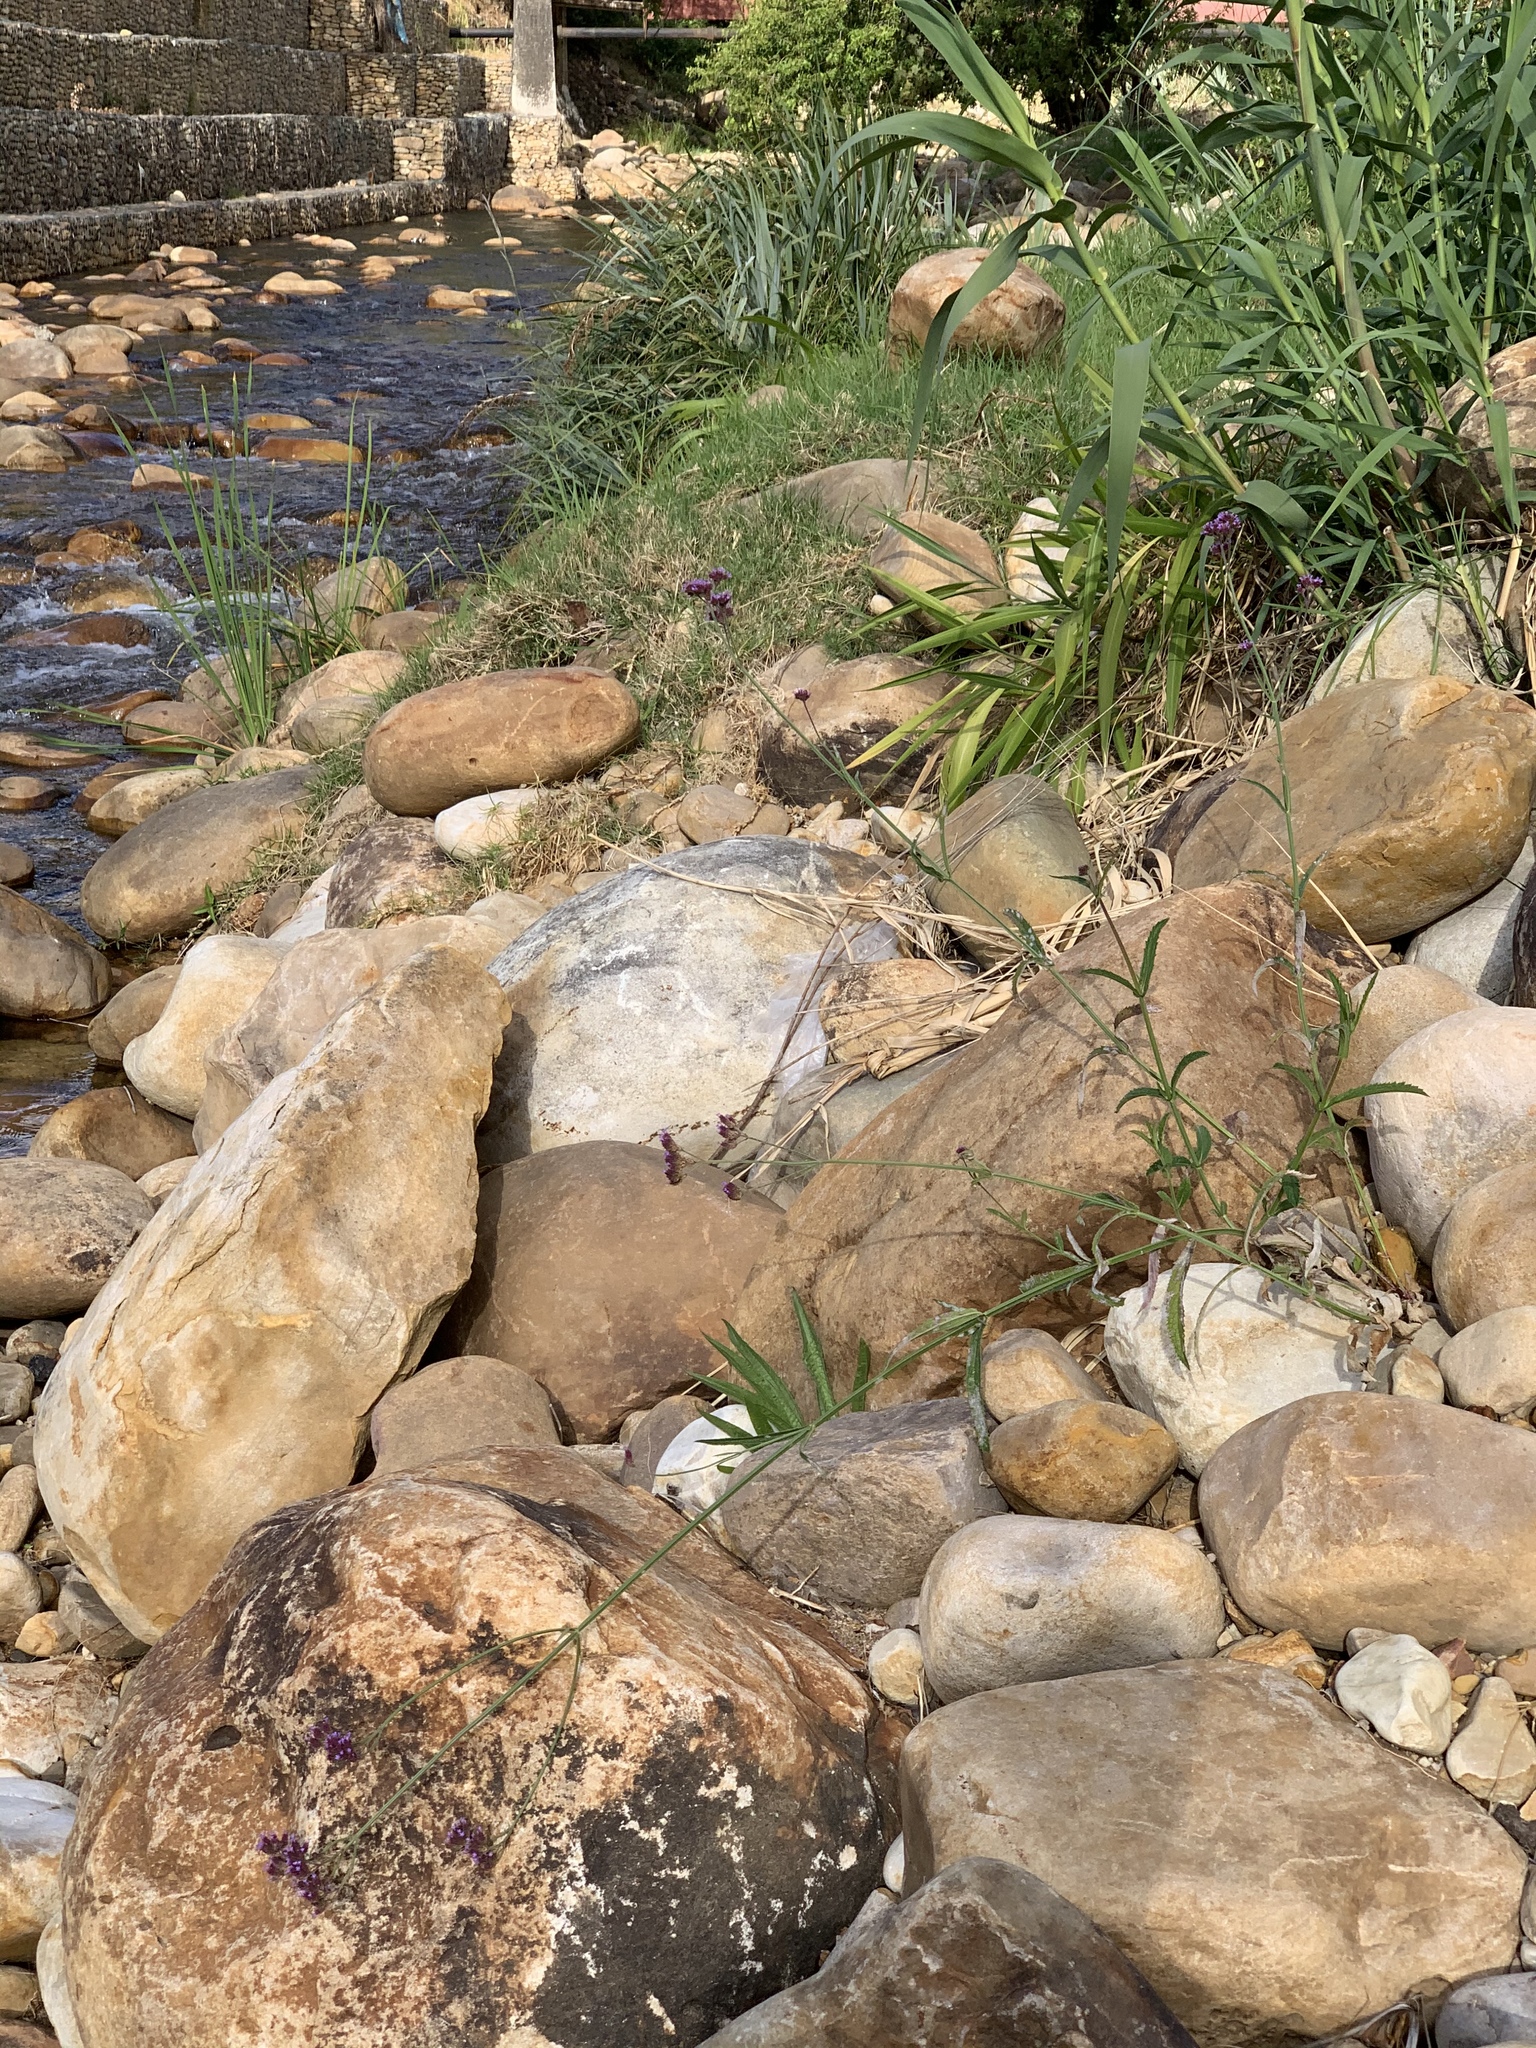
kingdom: Plantae
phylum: Tracheophyta
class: Magnoliopsida
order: Lamiales
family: Verbenaceae
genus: Verbena
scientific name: Verbena bonariensis
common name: Purpletop vervain
